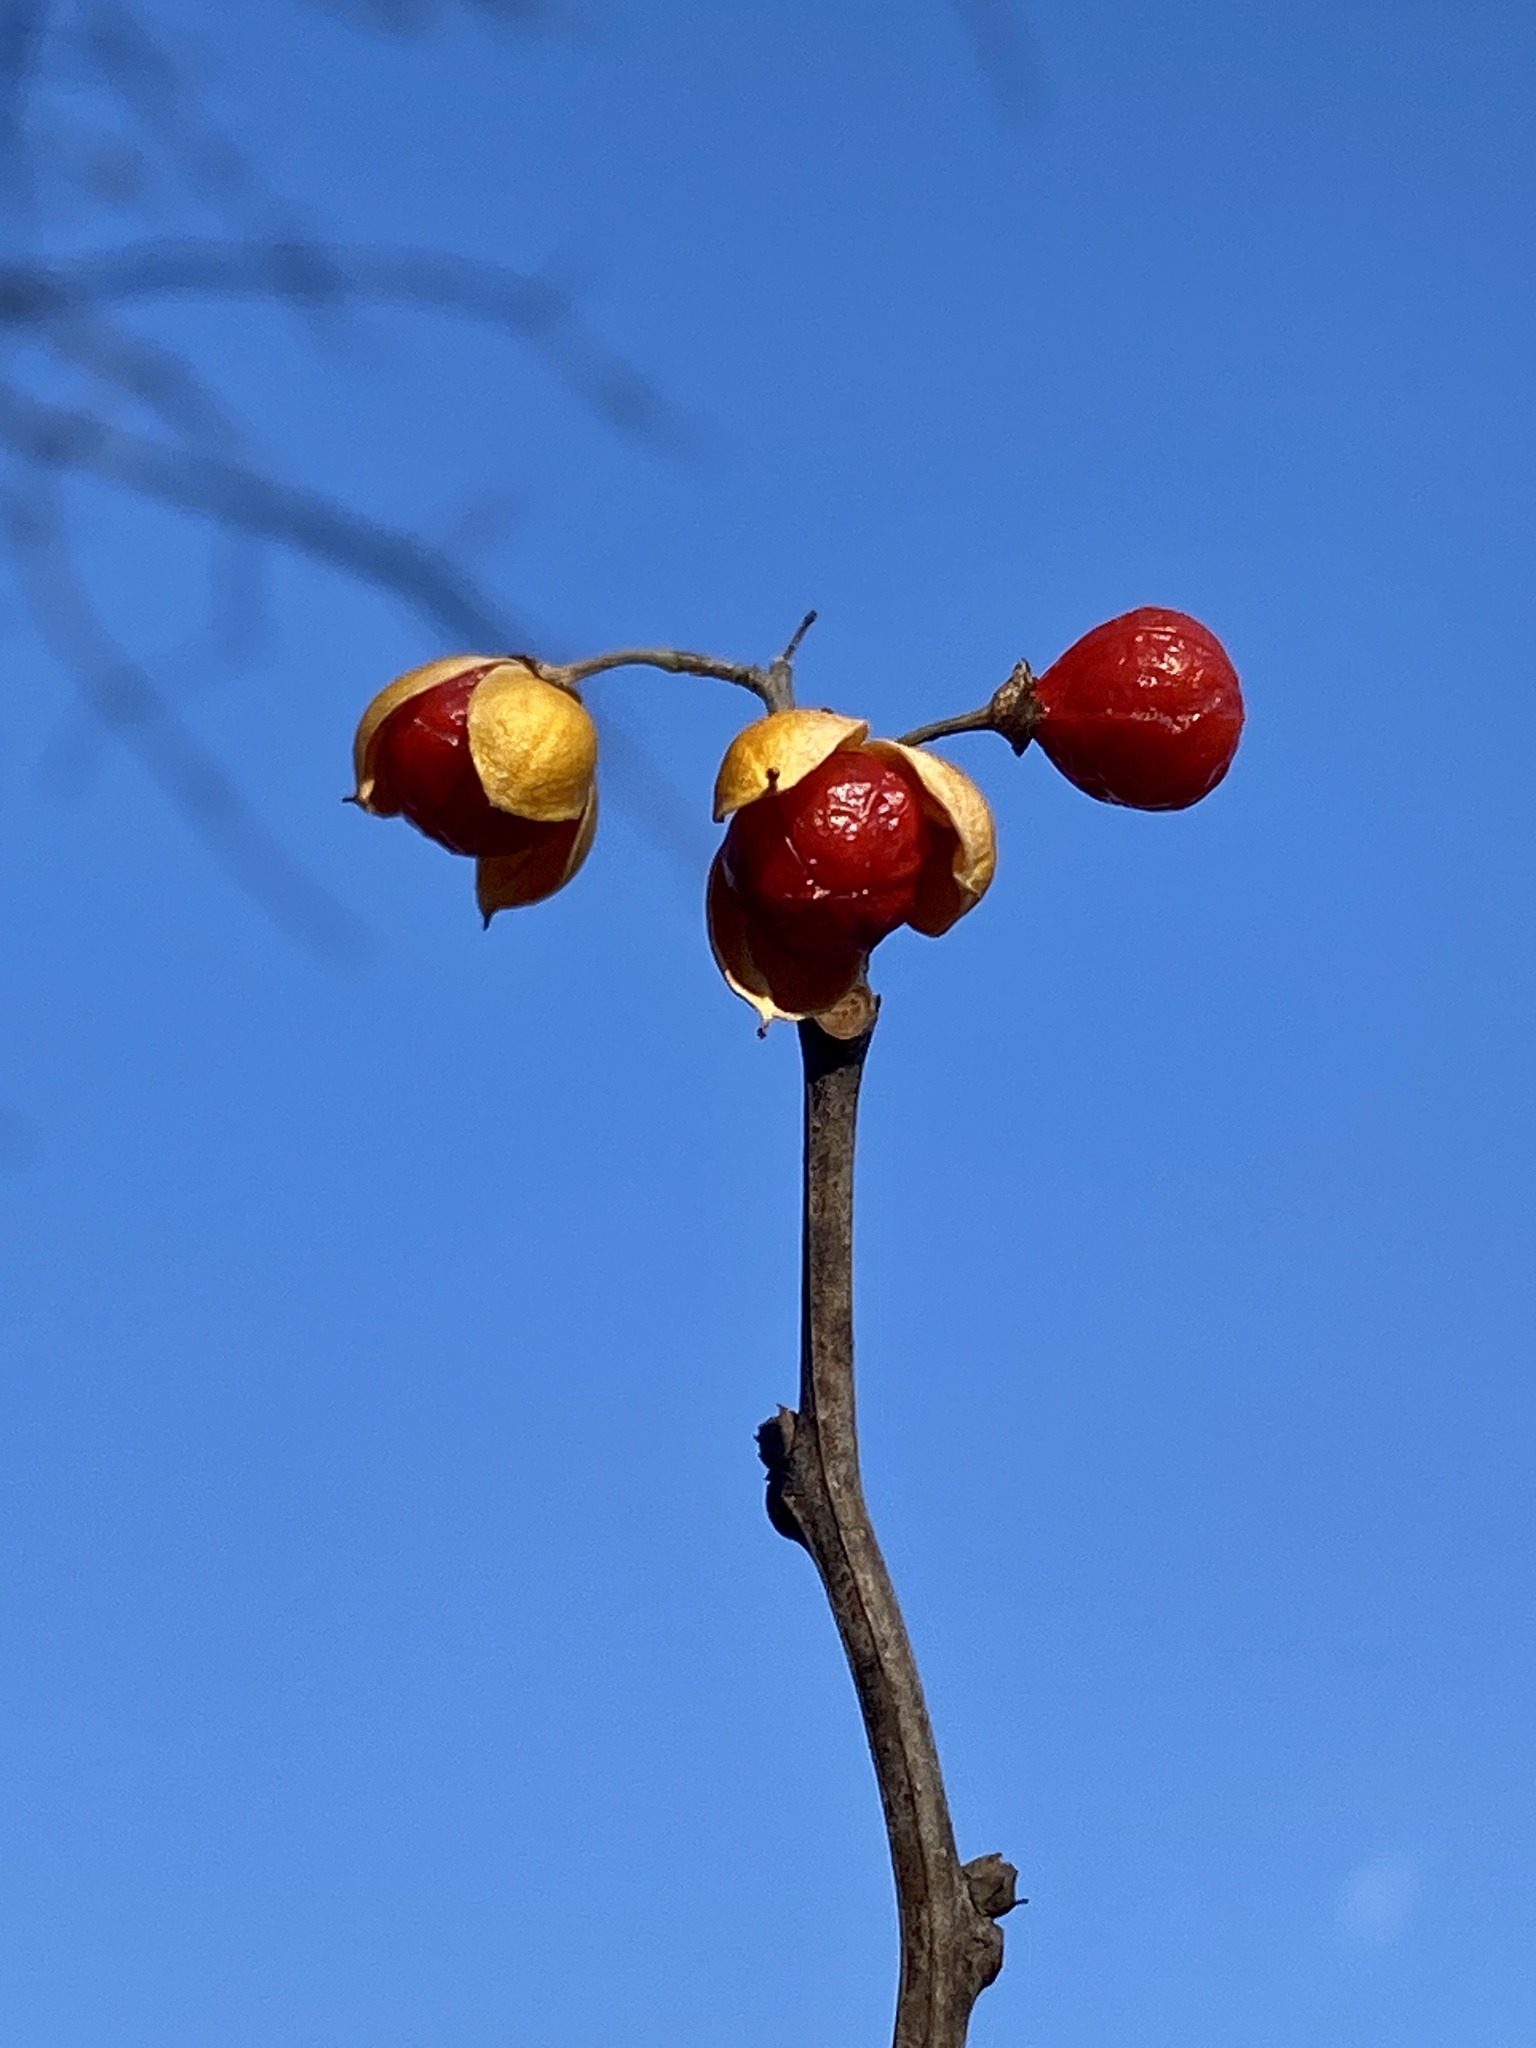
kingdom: Plantae
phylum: Tracheophyta
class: Magnoliopsida
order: Celastrales
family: Celastraceae
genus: Celastrus
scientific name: Celastrus orbiculatus
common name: Oriental bittersweet
